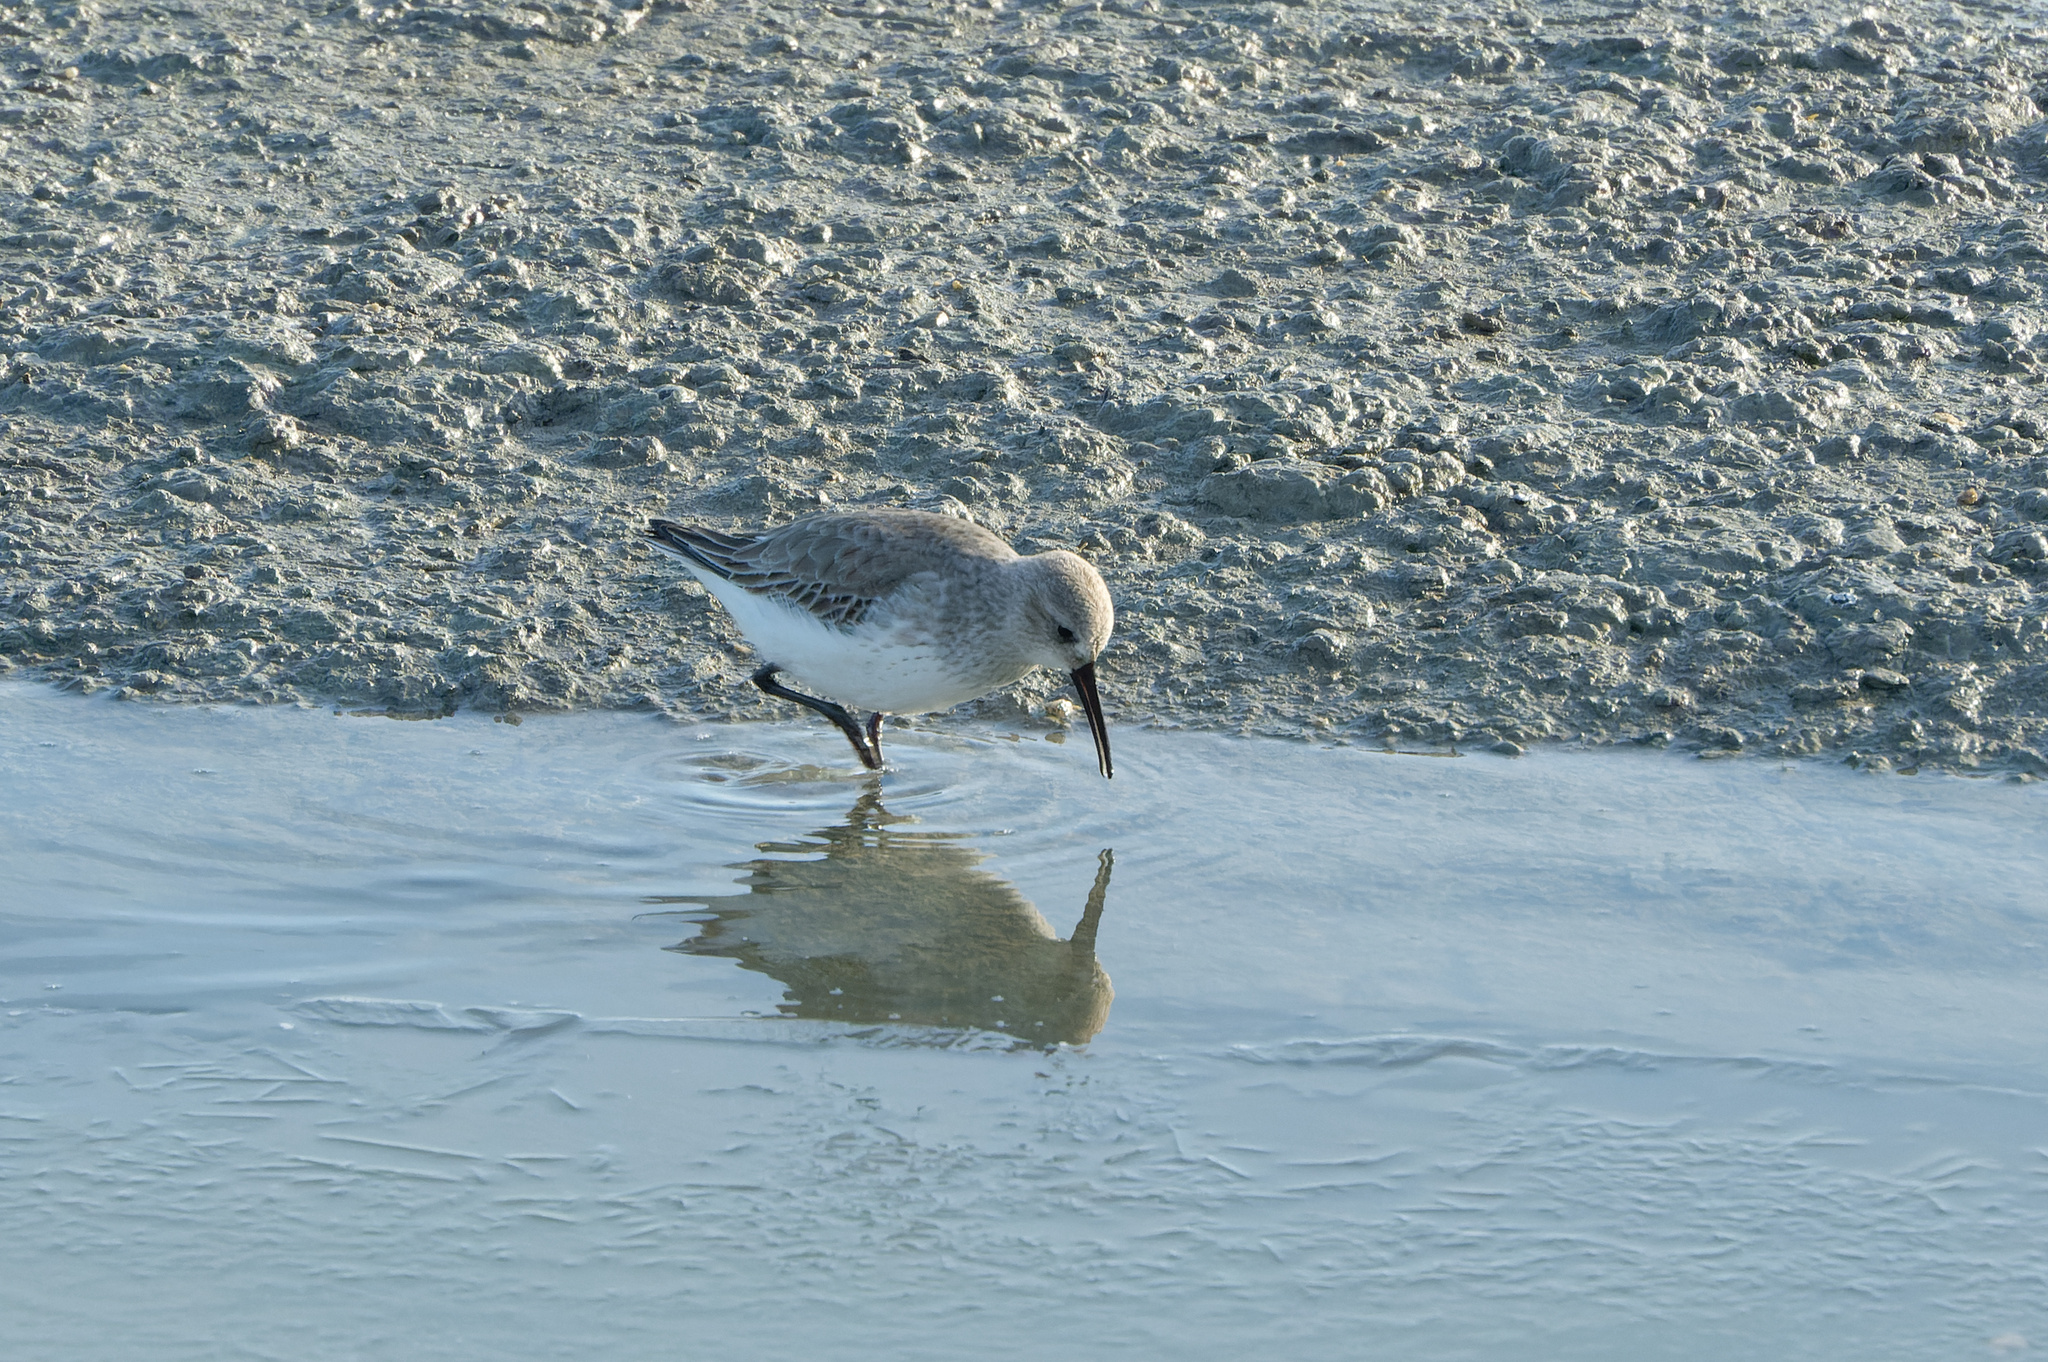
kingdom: Animalia
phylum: Chordata
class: Aves
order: Charadriiformes
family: Scolopacidae
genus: Calidris
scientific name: Calidris alpina
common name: Dunlin
